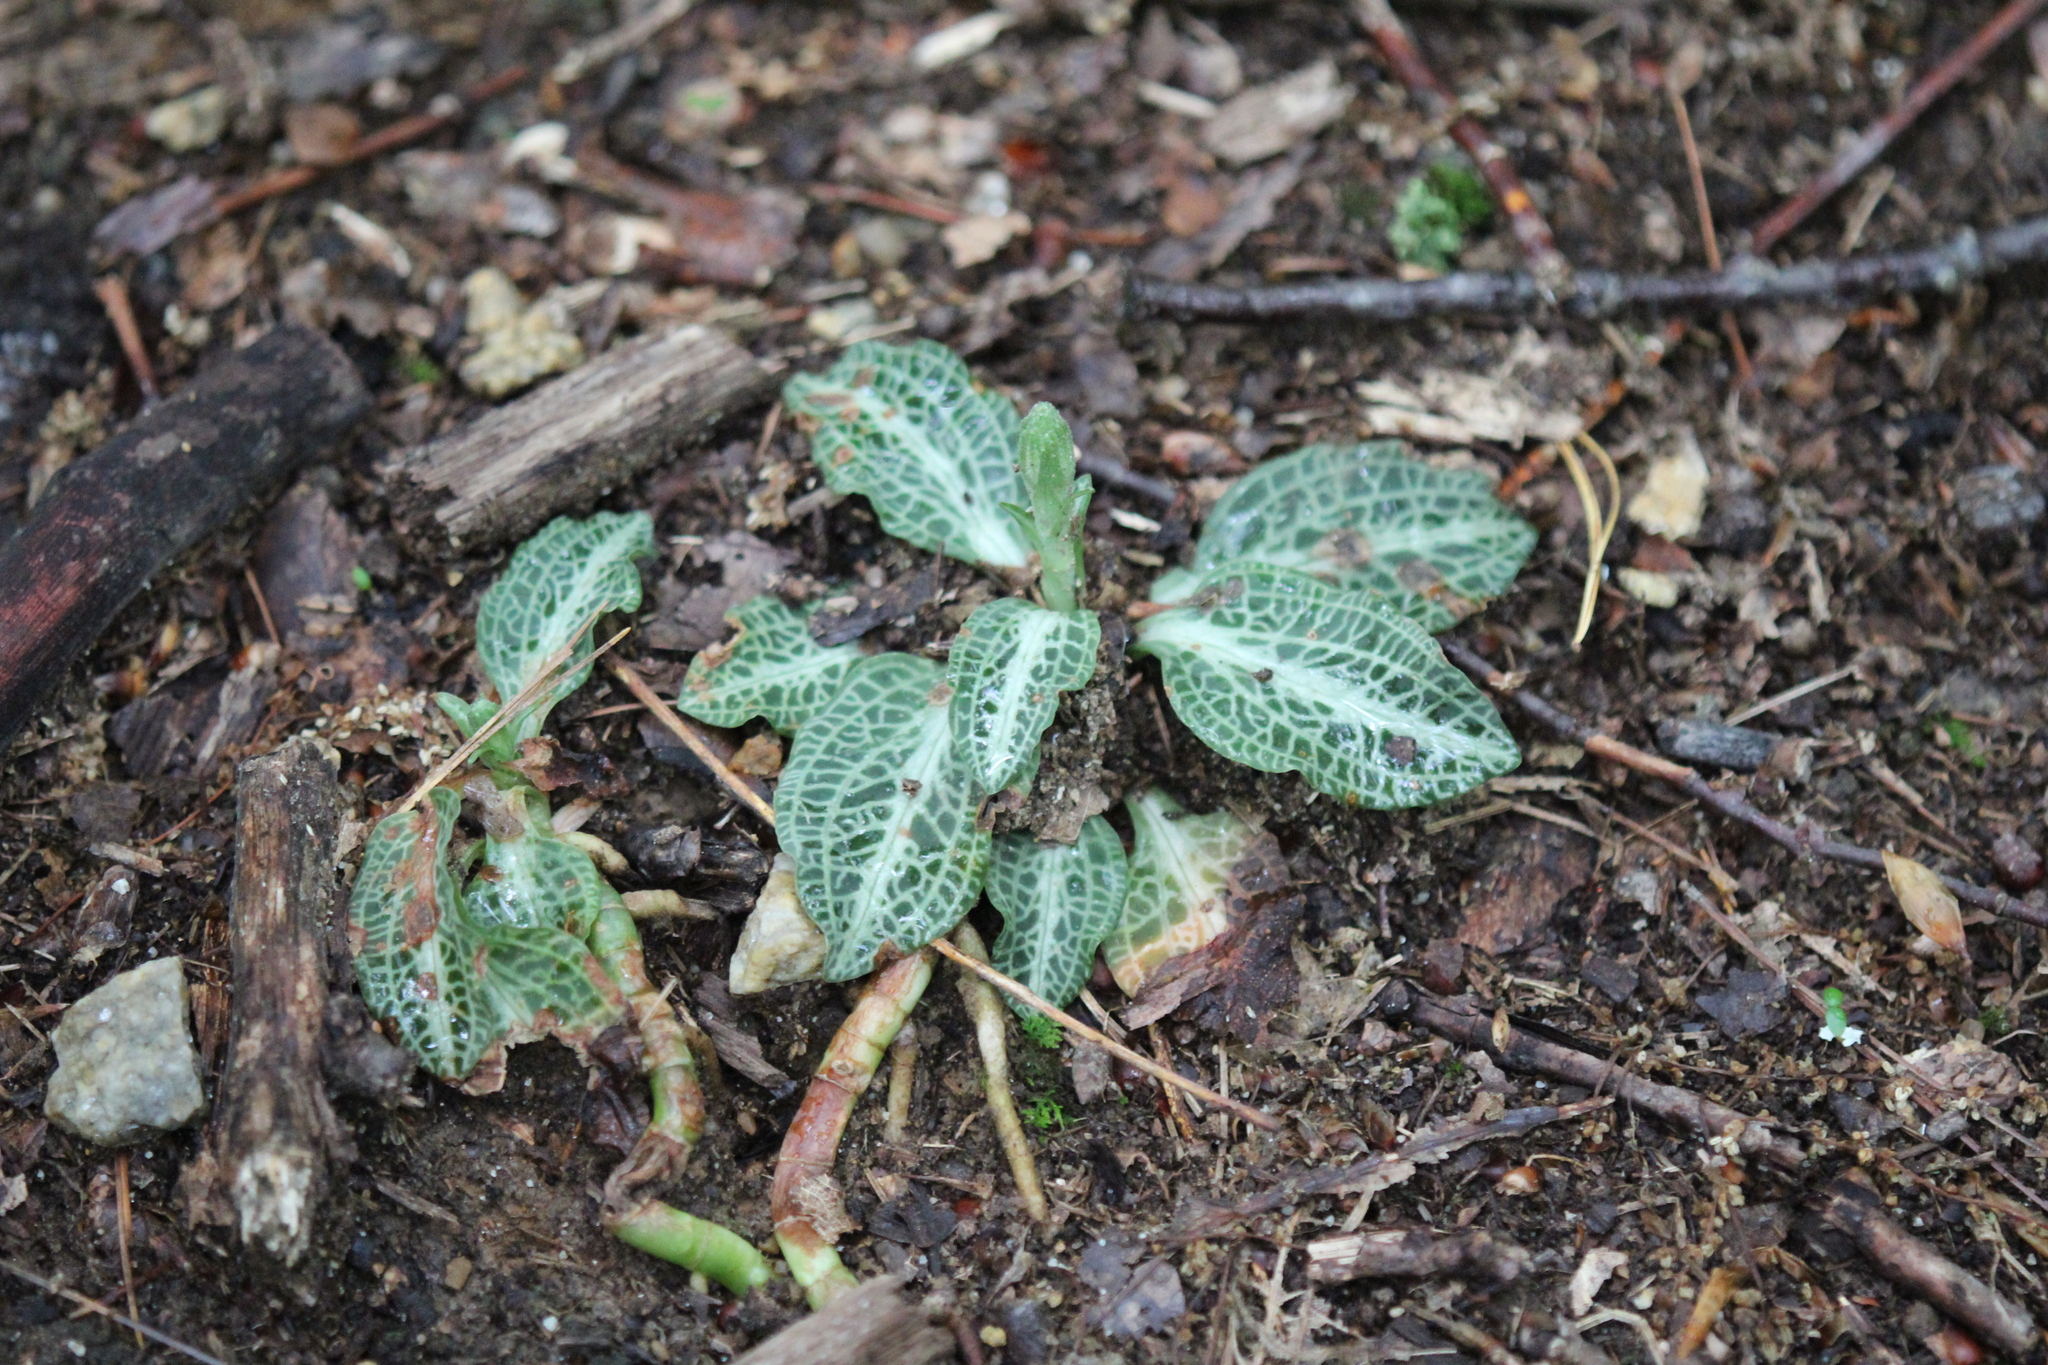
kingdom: Plantae
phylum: Tracheophyta
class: Liliopsida
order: Asparagales
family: Orchidaceae
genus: Goodyera
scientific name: Goodyera pubescens
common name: Downy rattlesnake-plantain
